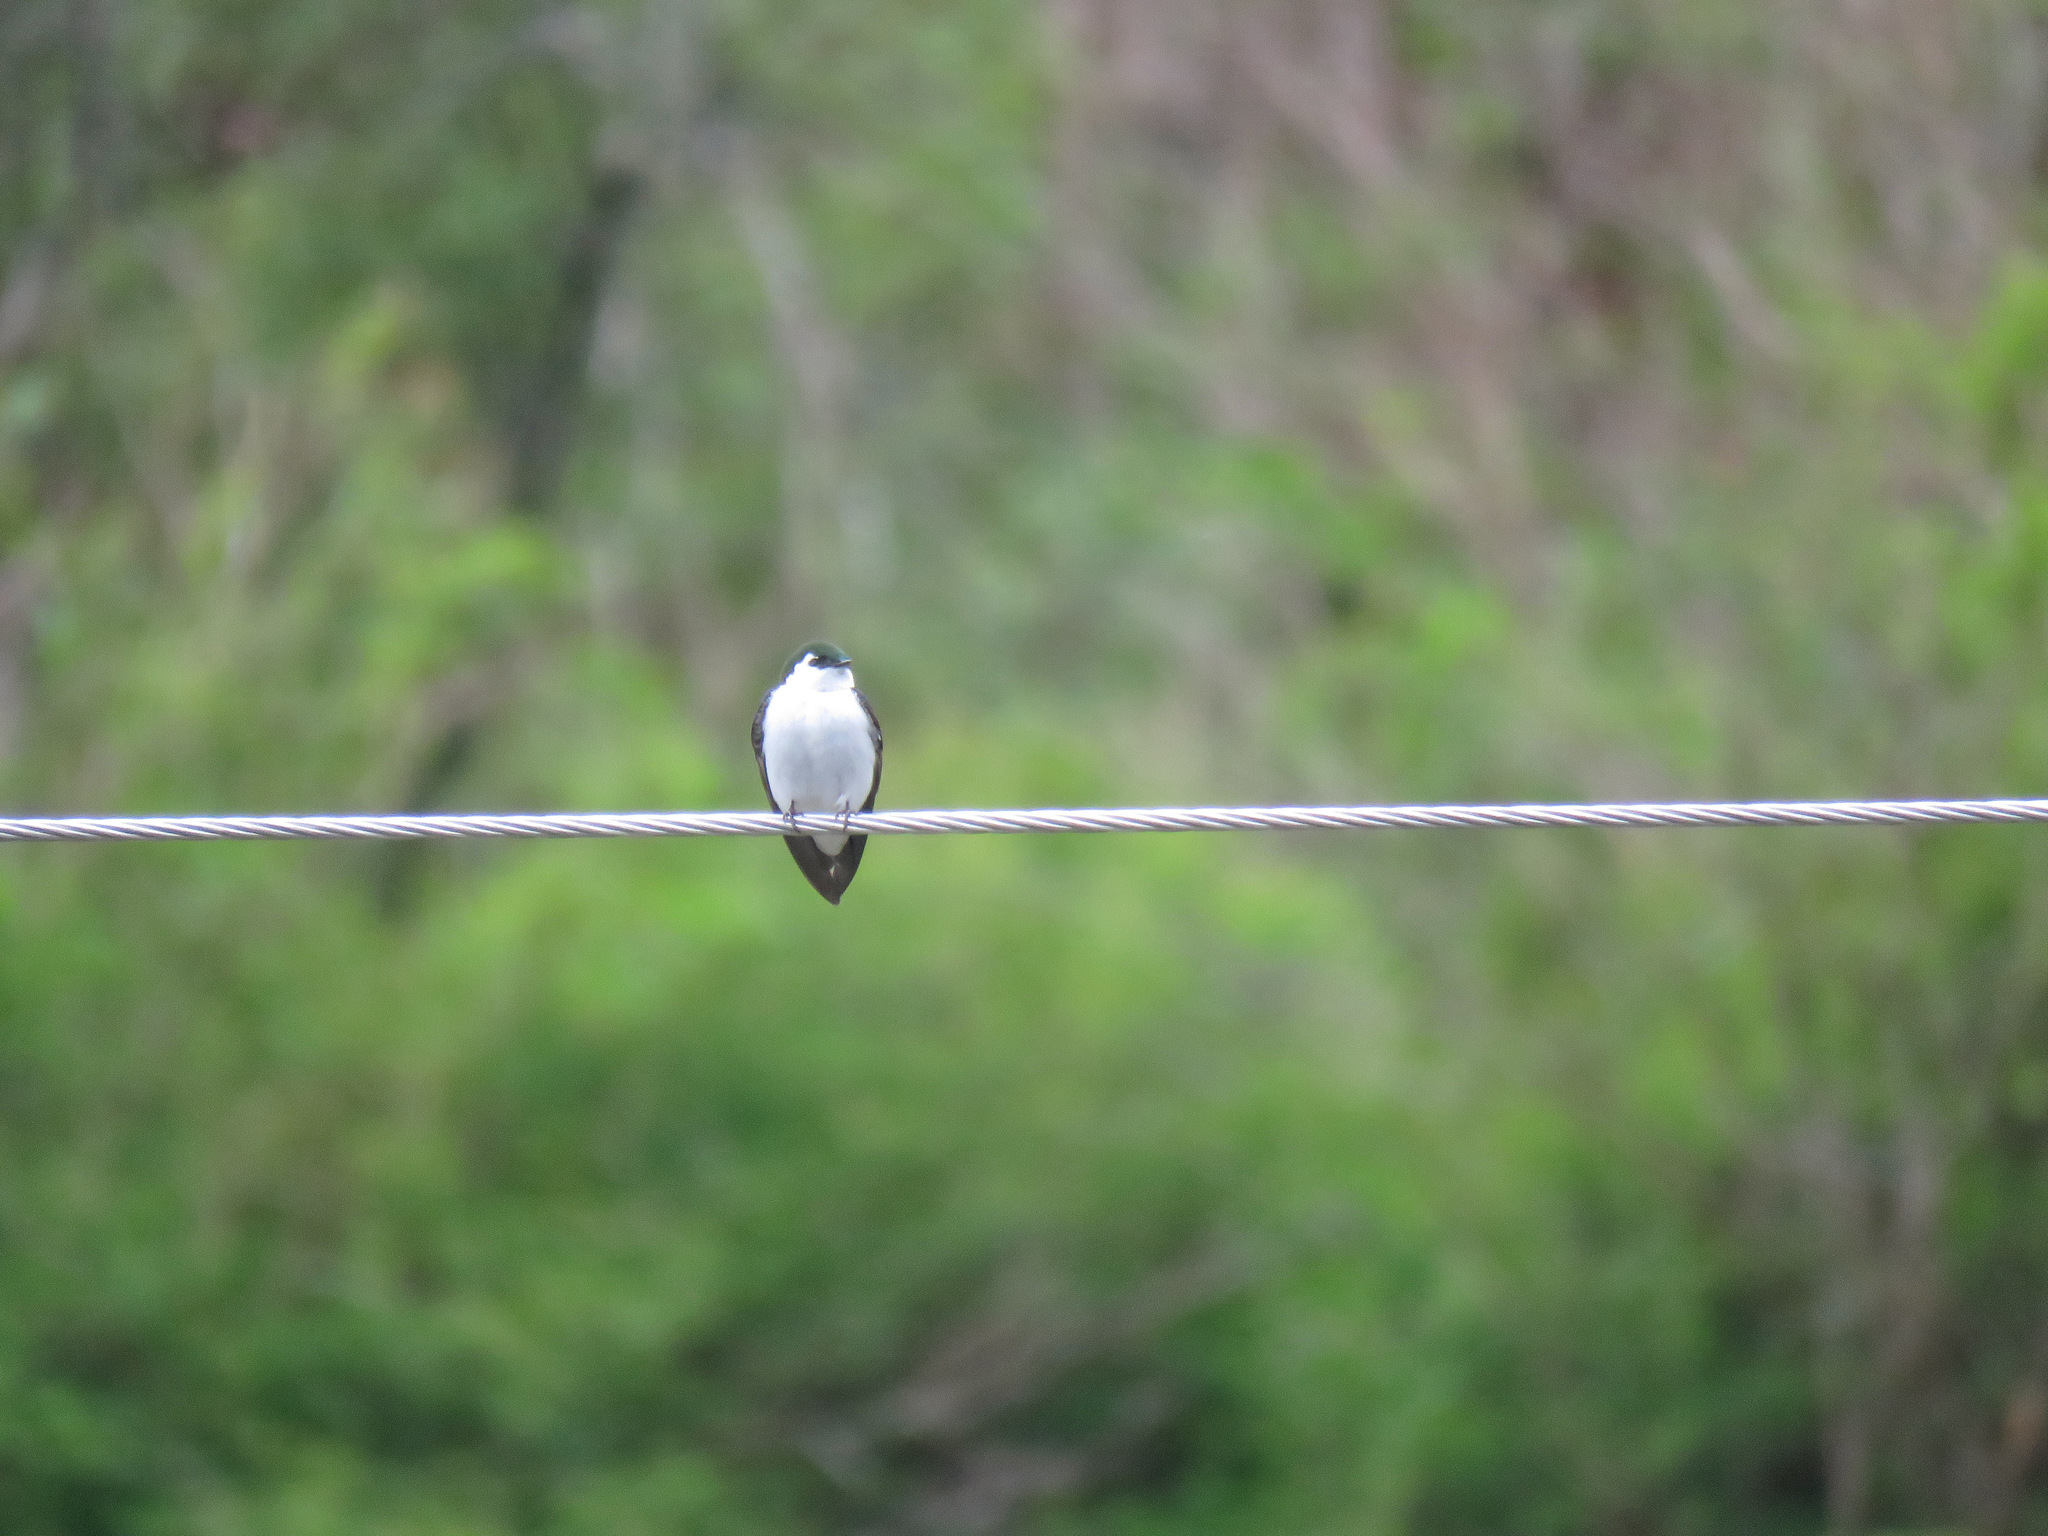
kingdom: Animalia
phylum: Chordata
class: Aves
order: Passeriformes
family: Hirundinidae
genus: Tachycineta
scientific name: Tachycineta thalassina
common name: Violet-green swallow
